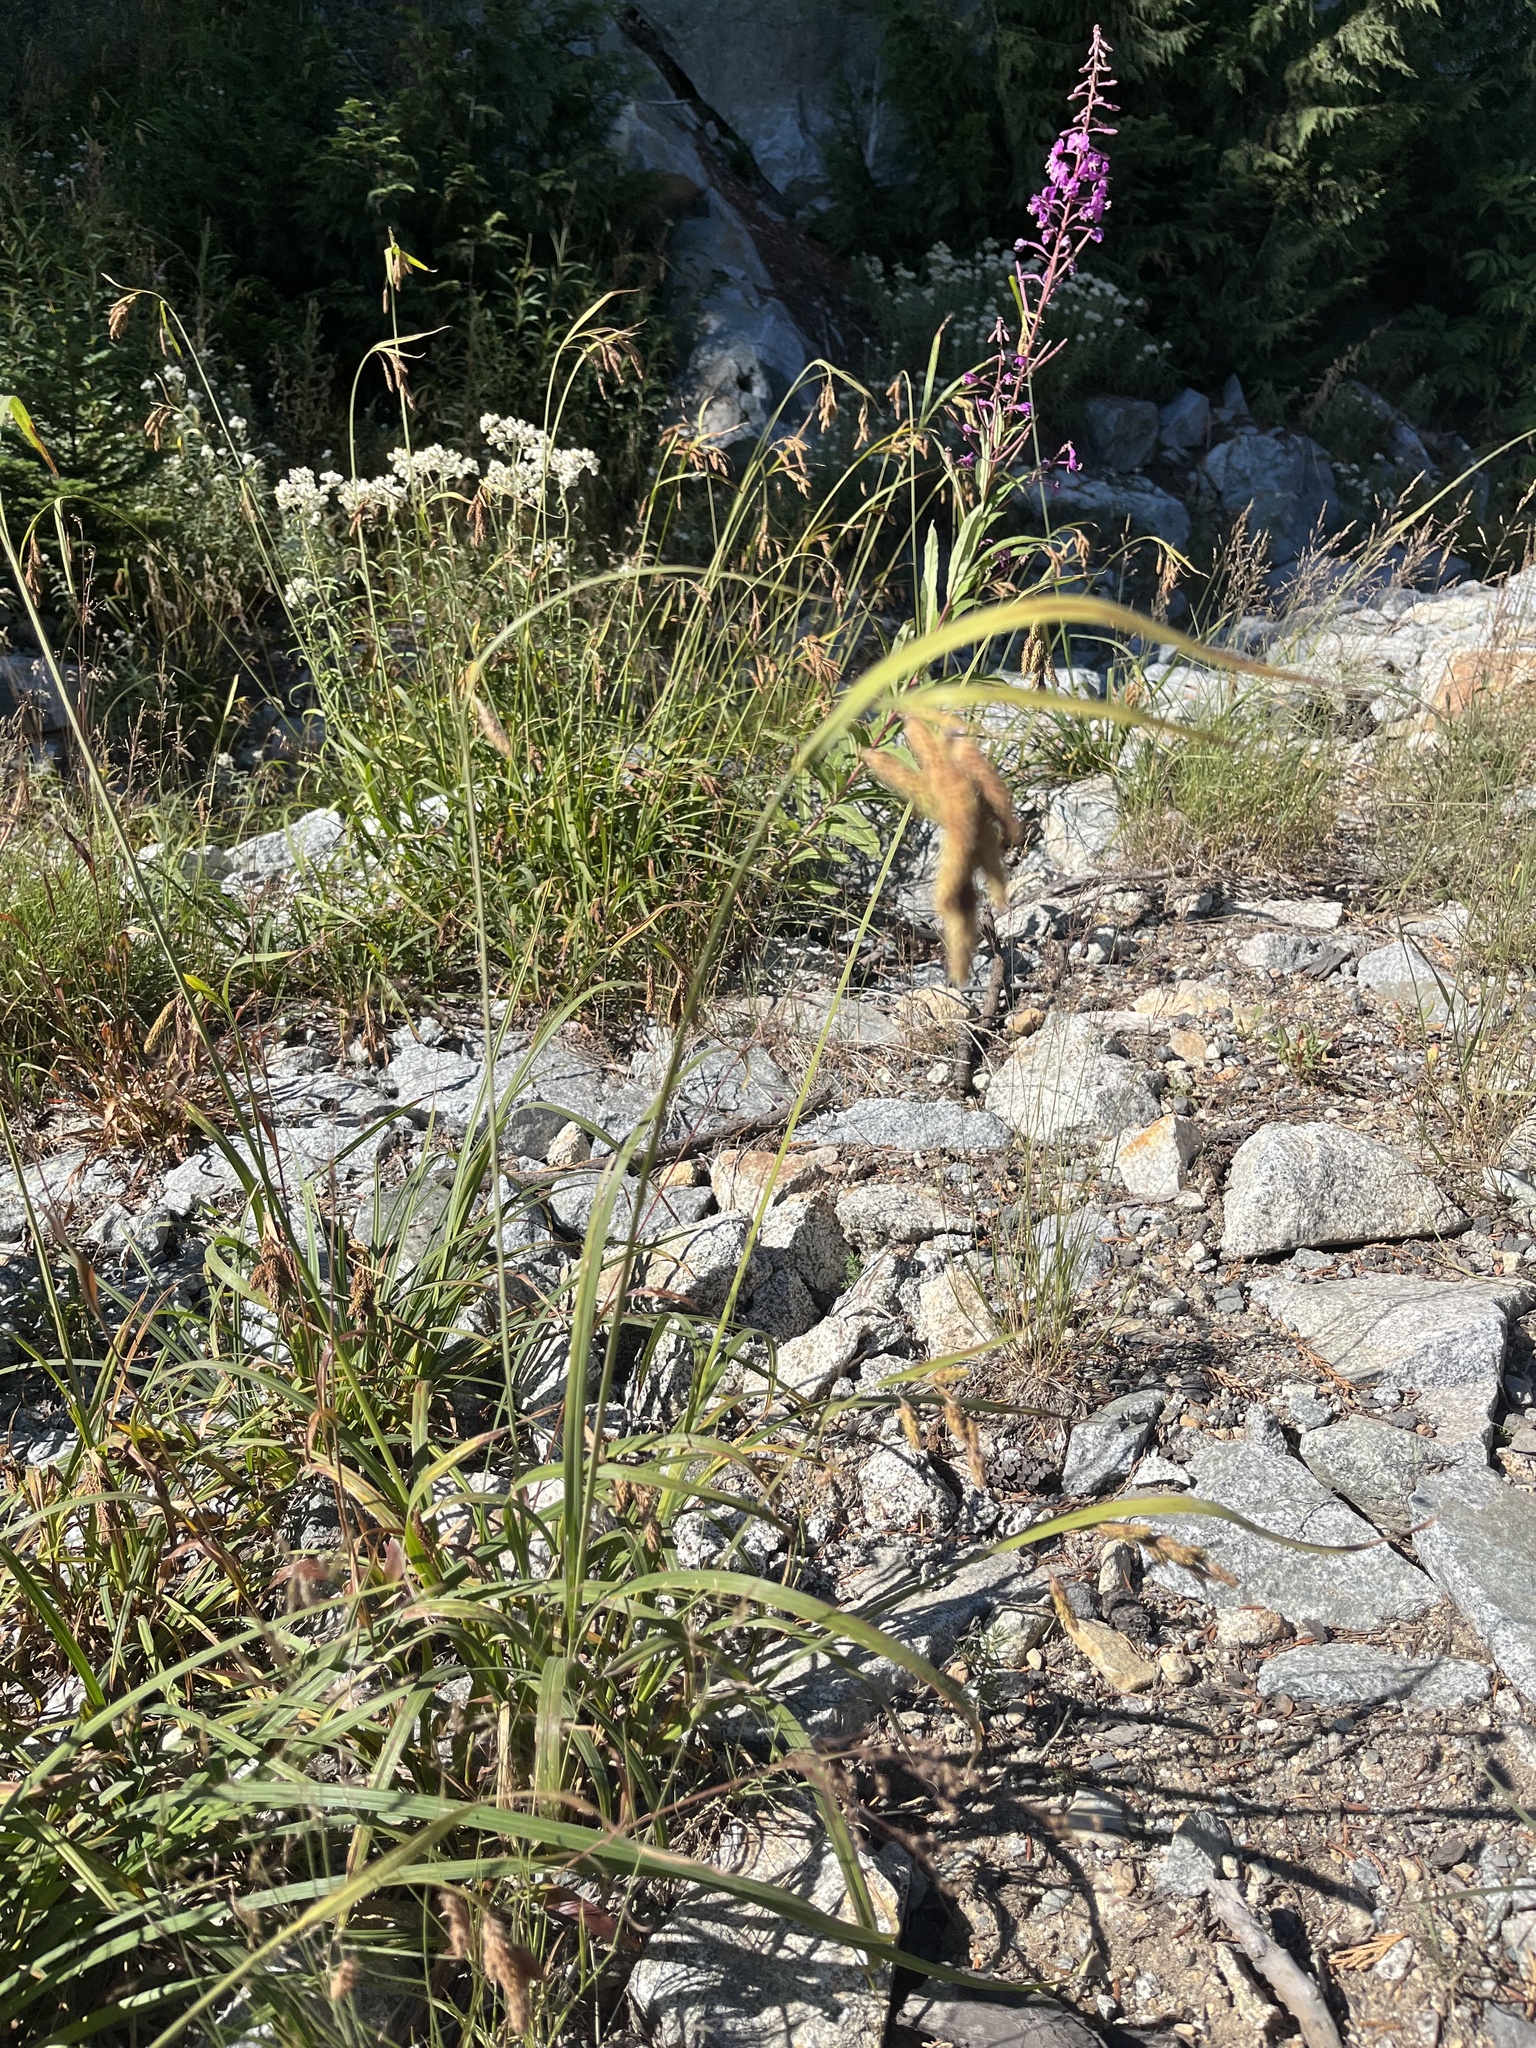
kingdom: Plantae
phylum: Tracheophyta
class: Liliopsida
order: Poales
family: Cyperaceae
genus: Carex
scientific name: Carex mertensii
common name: Mertens' sedge
